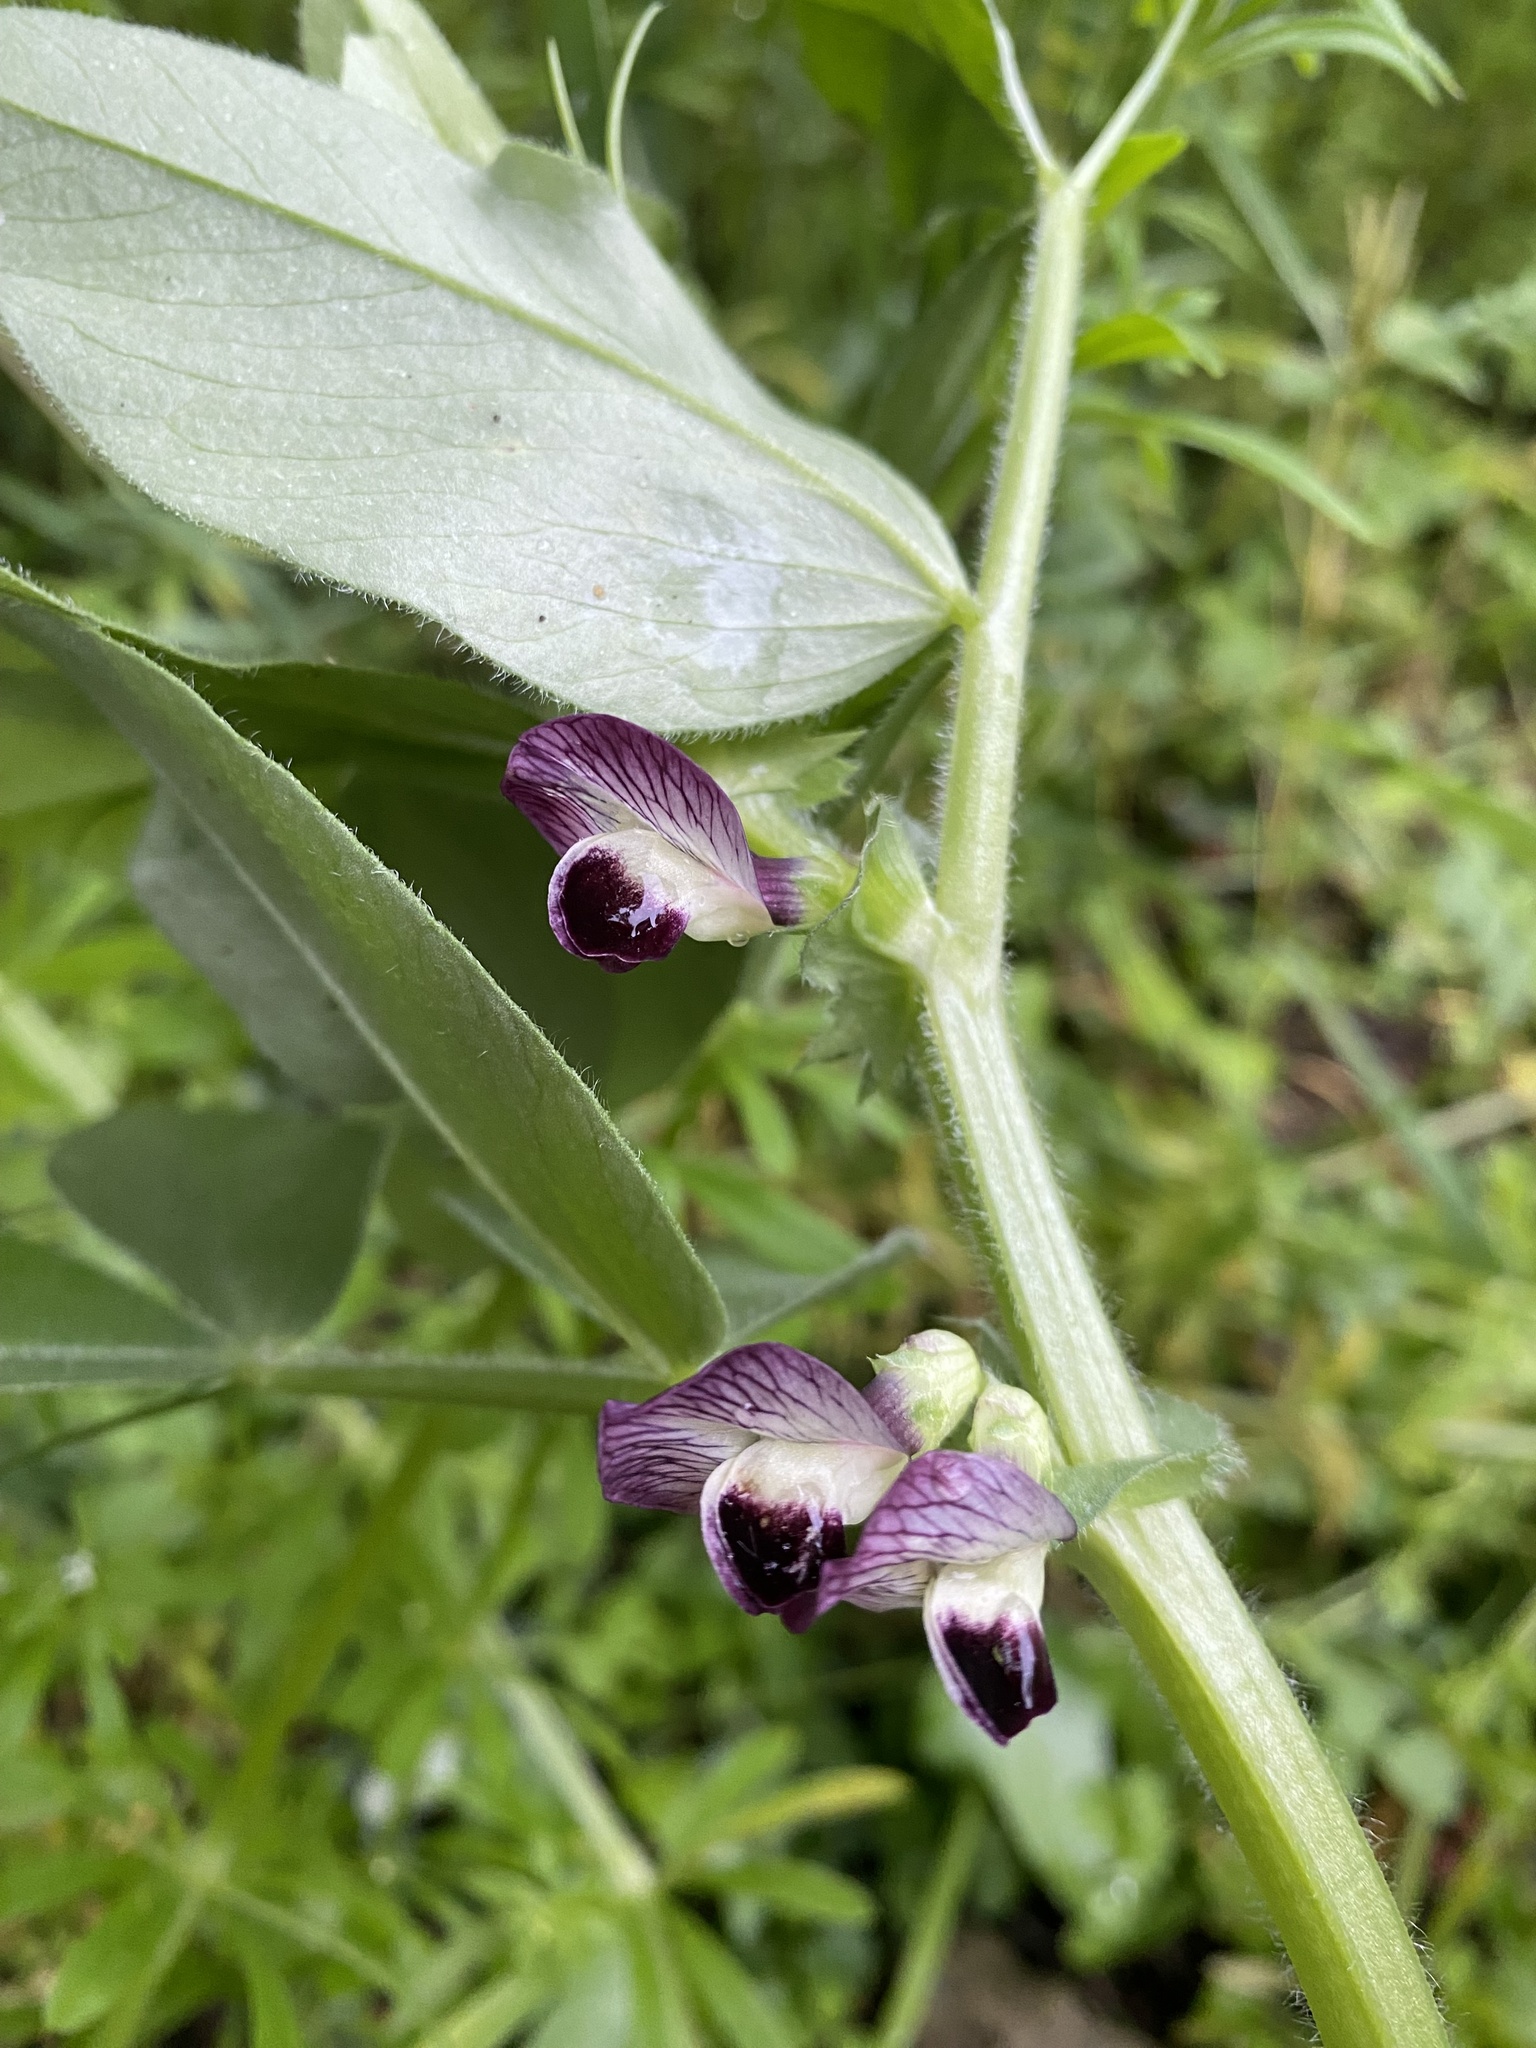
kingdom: Plantae
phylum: Tracheophyta
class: Magnoliopsida
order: Fabales
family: Fabaceae
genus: Vicia
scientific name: Vicia narbonensis
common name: Narbonne vetch
